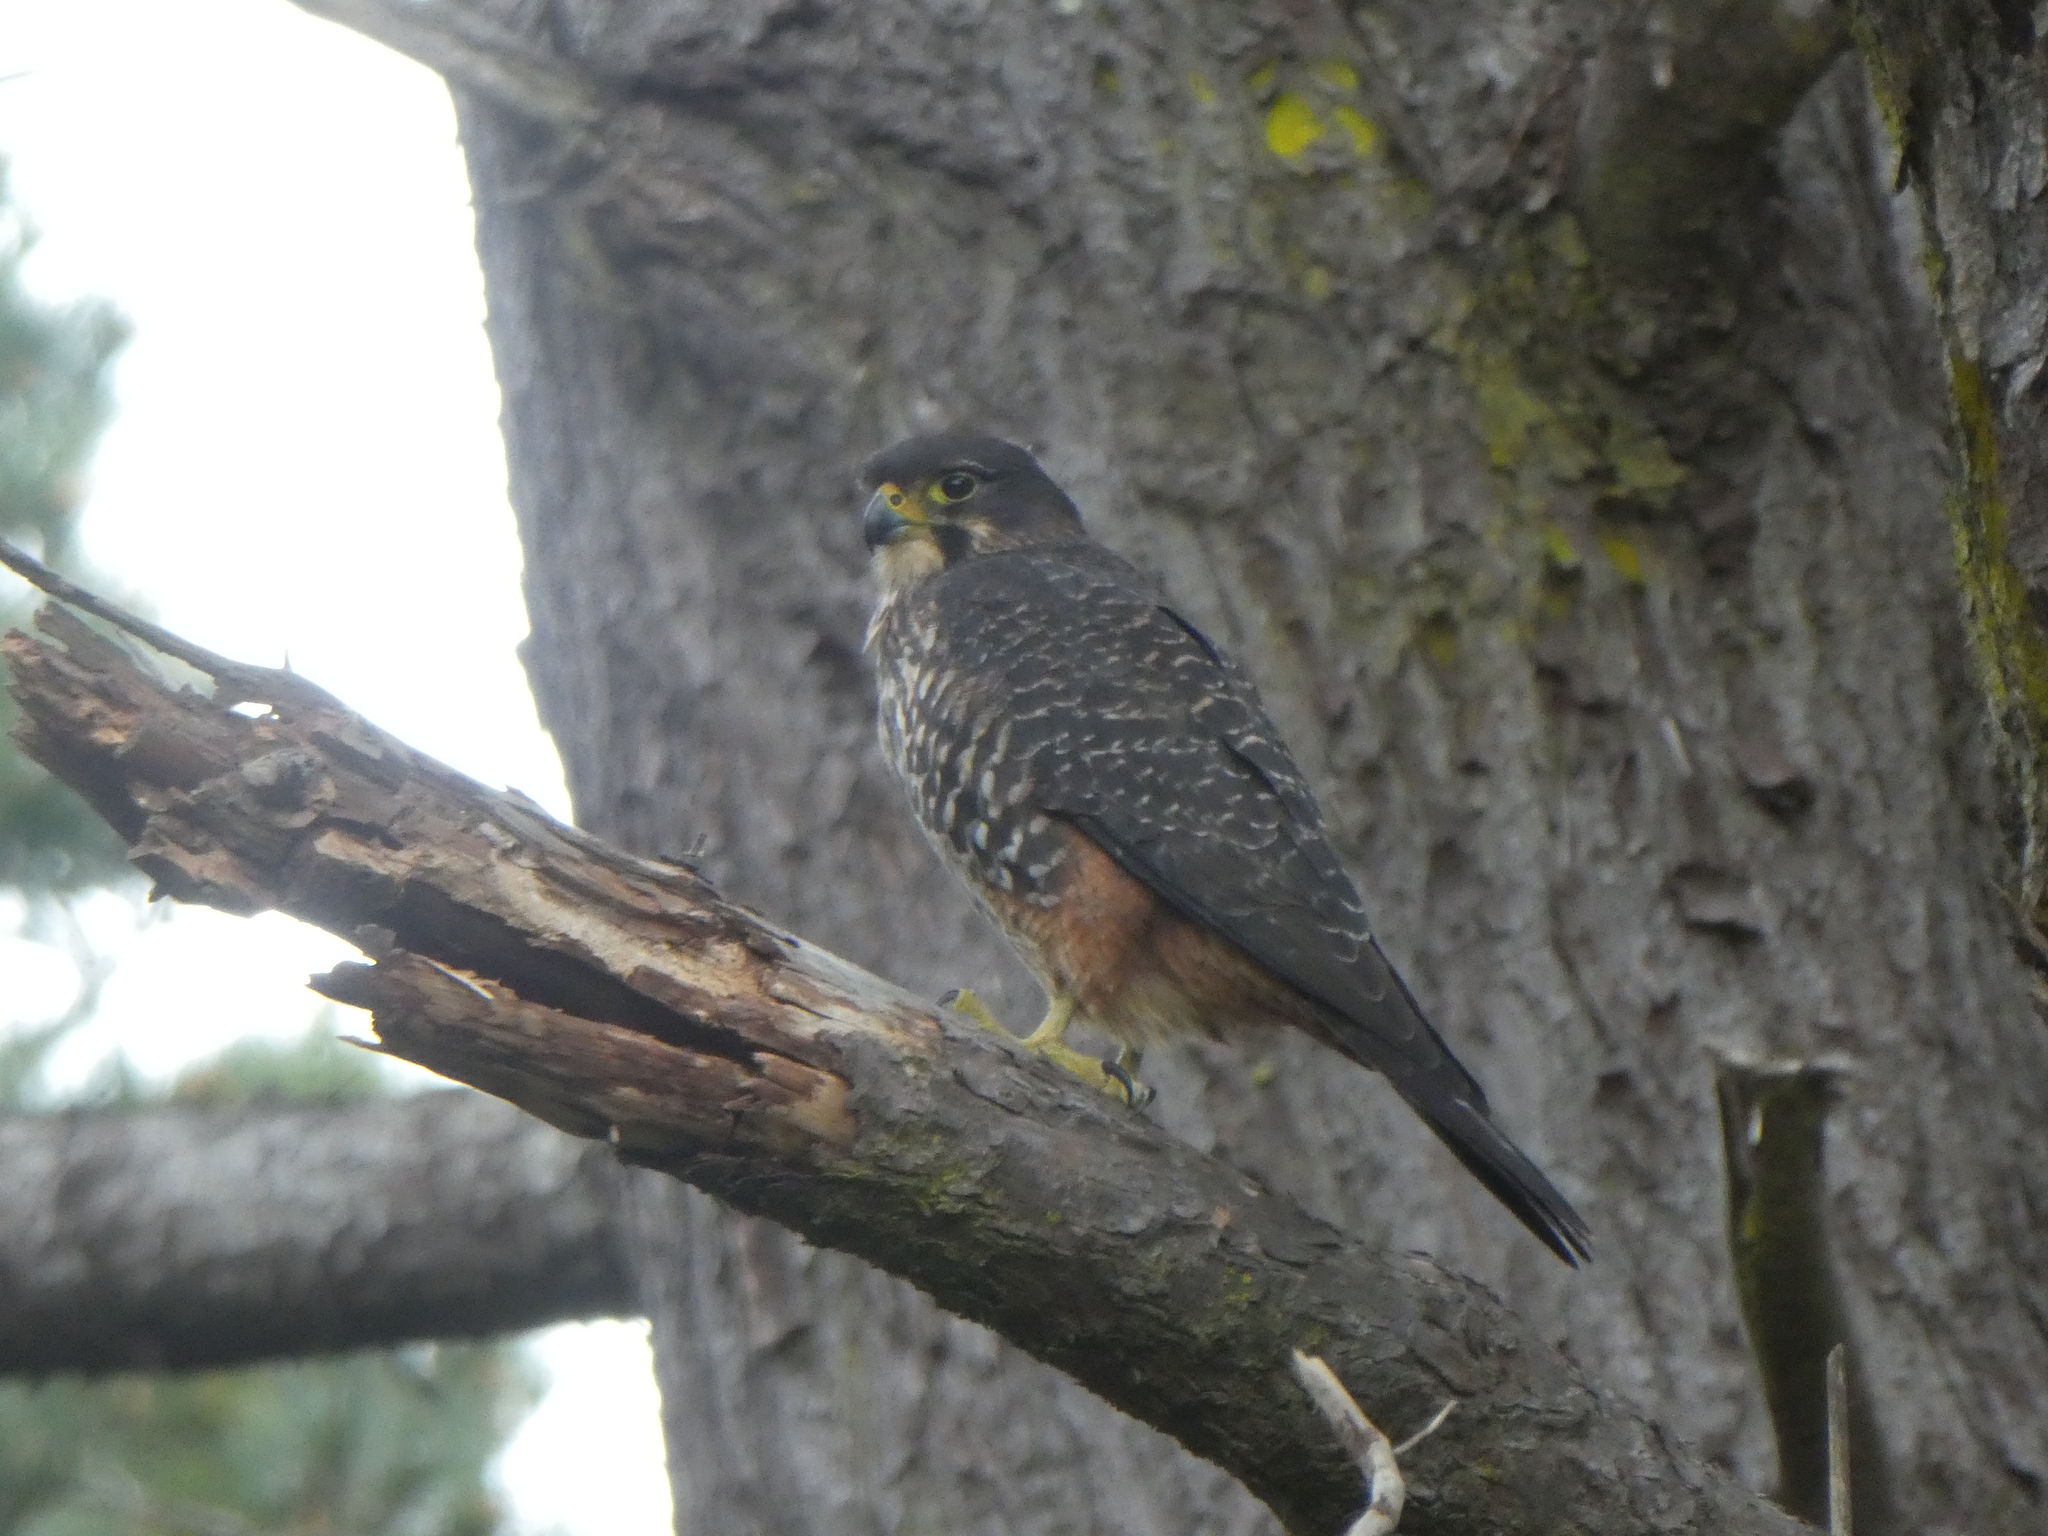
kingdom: Animalia
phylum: Chordata
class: Aves
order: Falconiformes
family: Falconidae
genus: Falco
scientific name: Falco novaeseelandiae
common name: New zealand falcon
